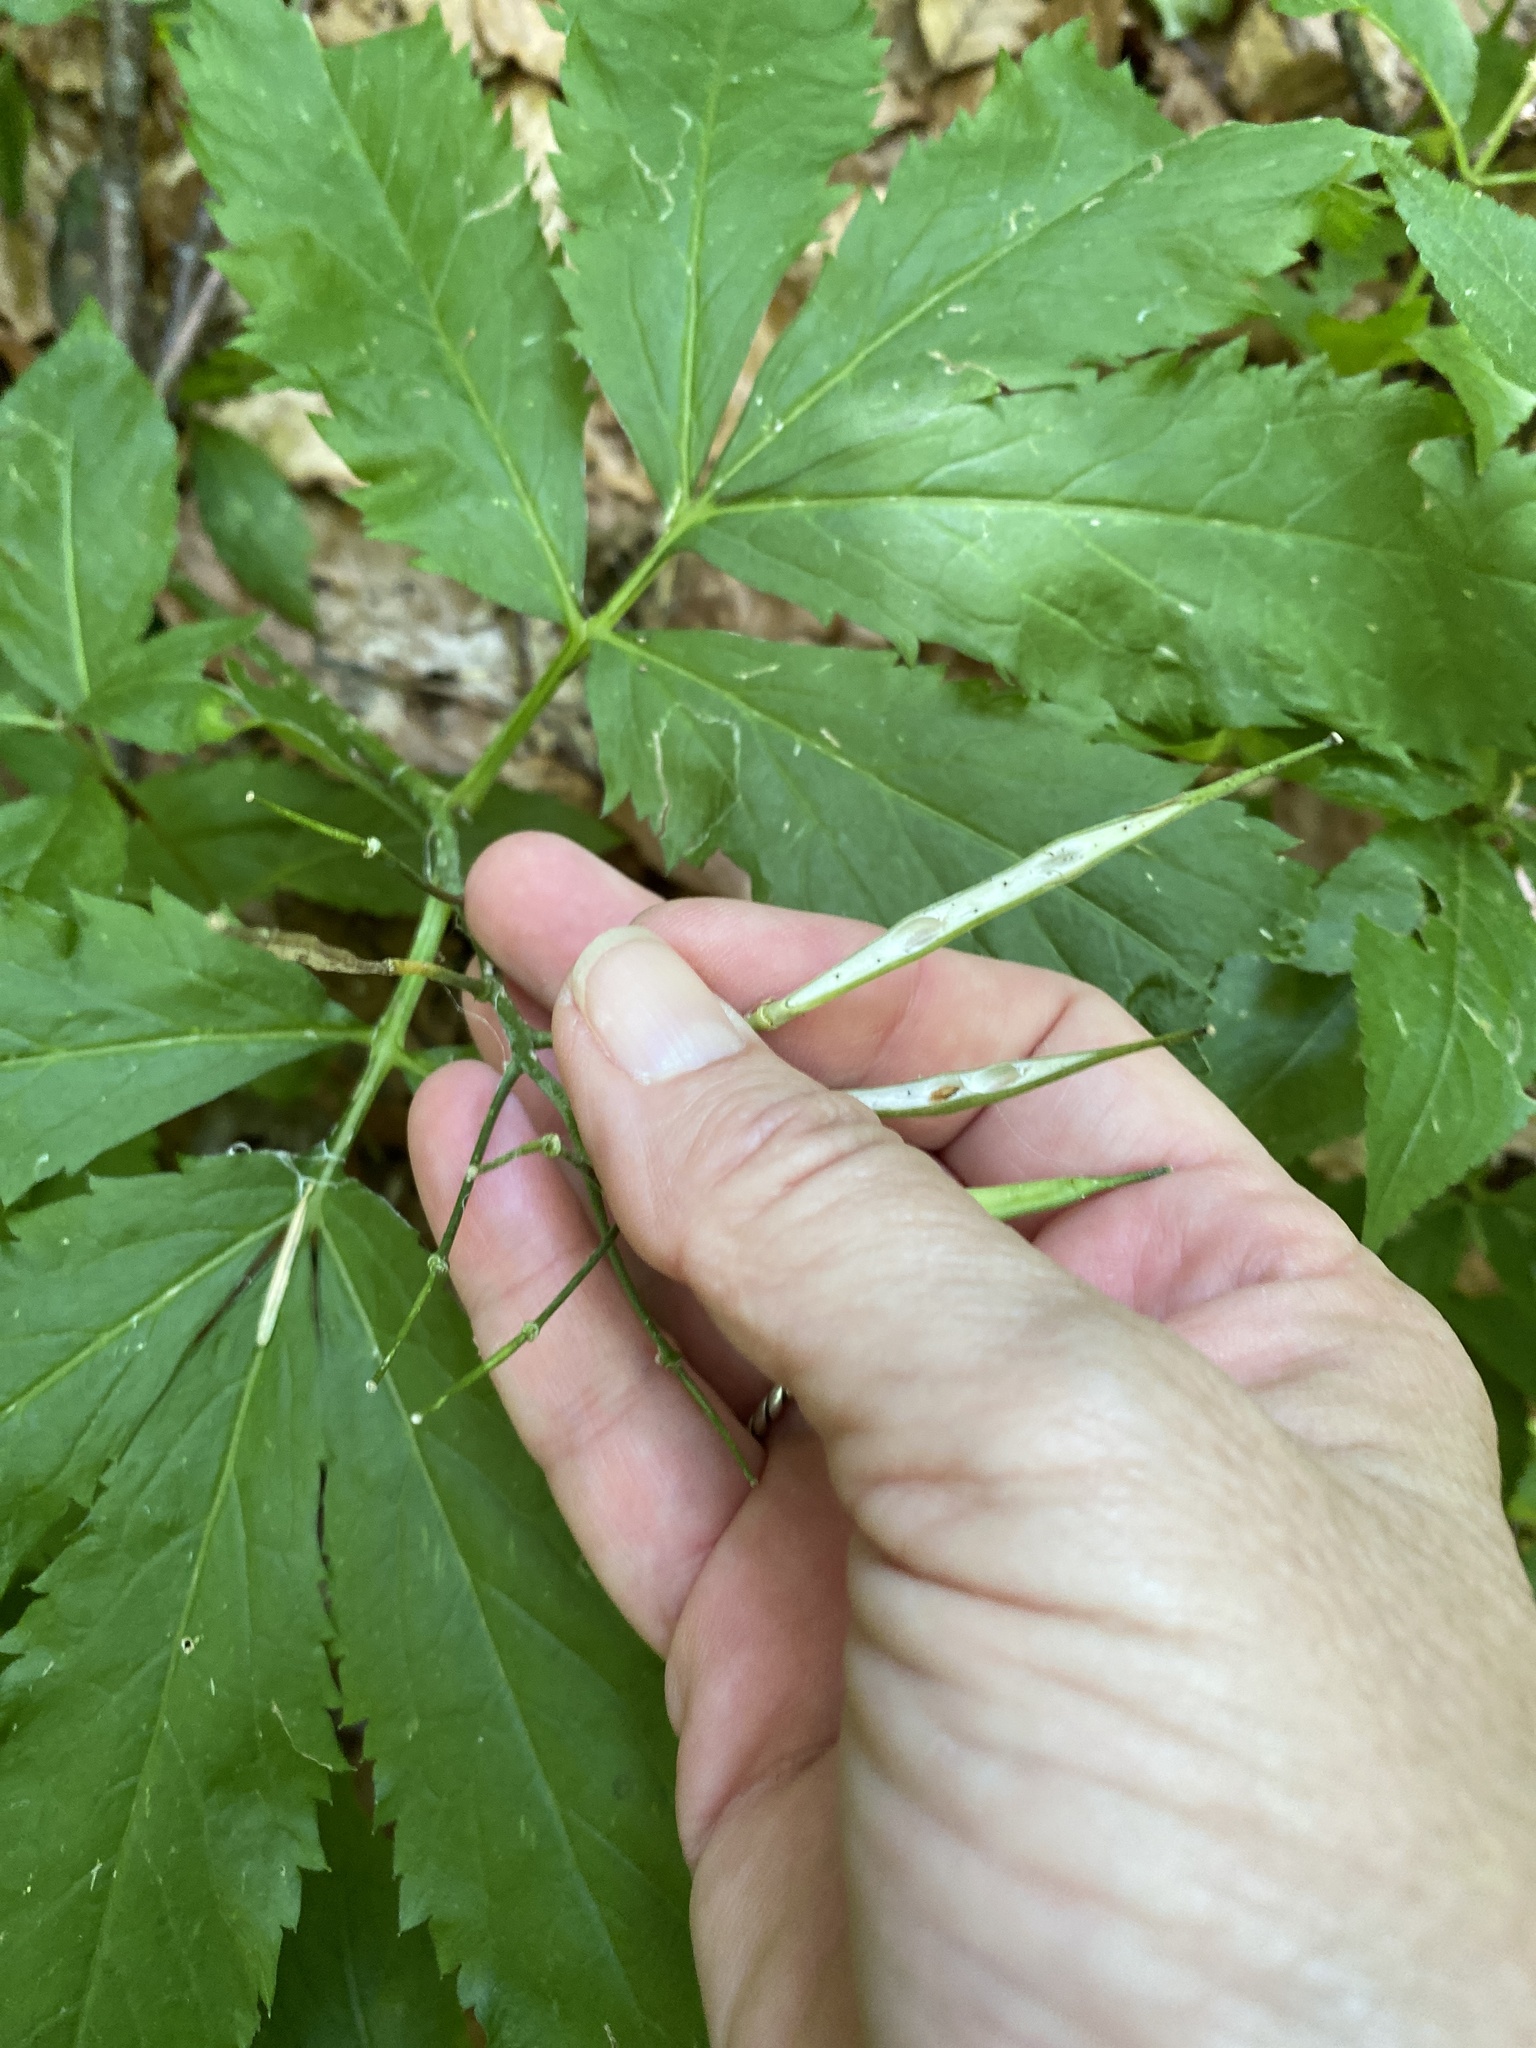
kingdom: Plantae
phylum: Tracheophyta
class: Magnoliopsida
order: Brassicales
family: Brassicaceae
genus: Cardamine
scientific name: Cardamine heptaphylla
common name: Pinnate coralroot
